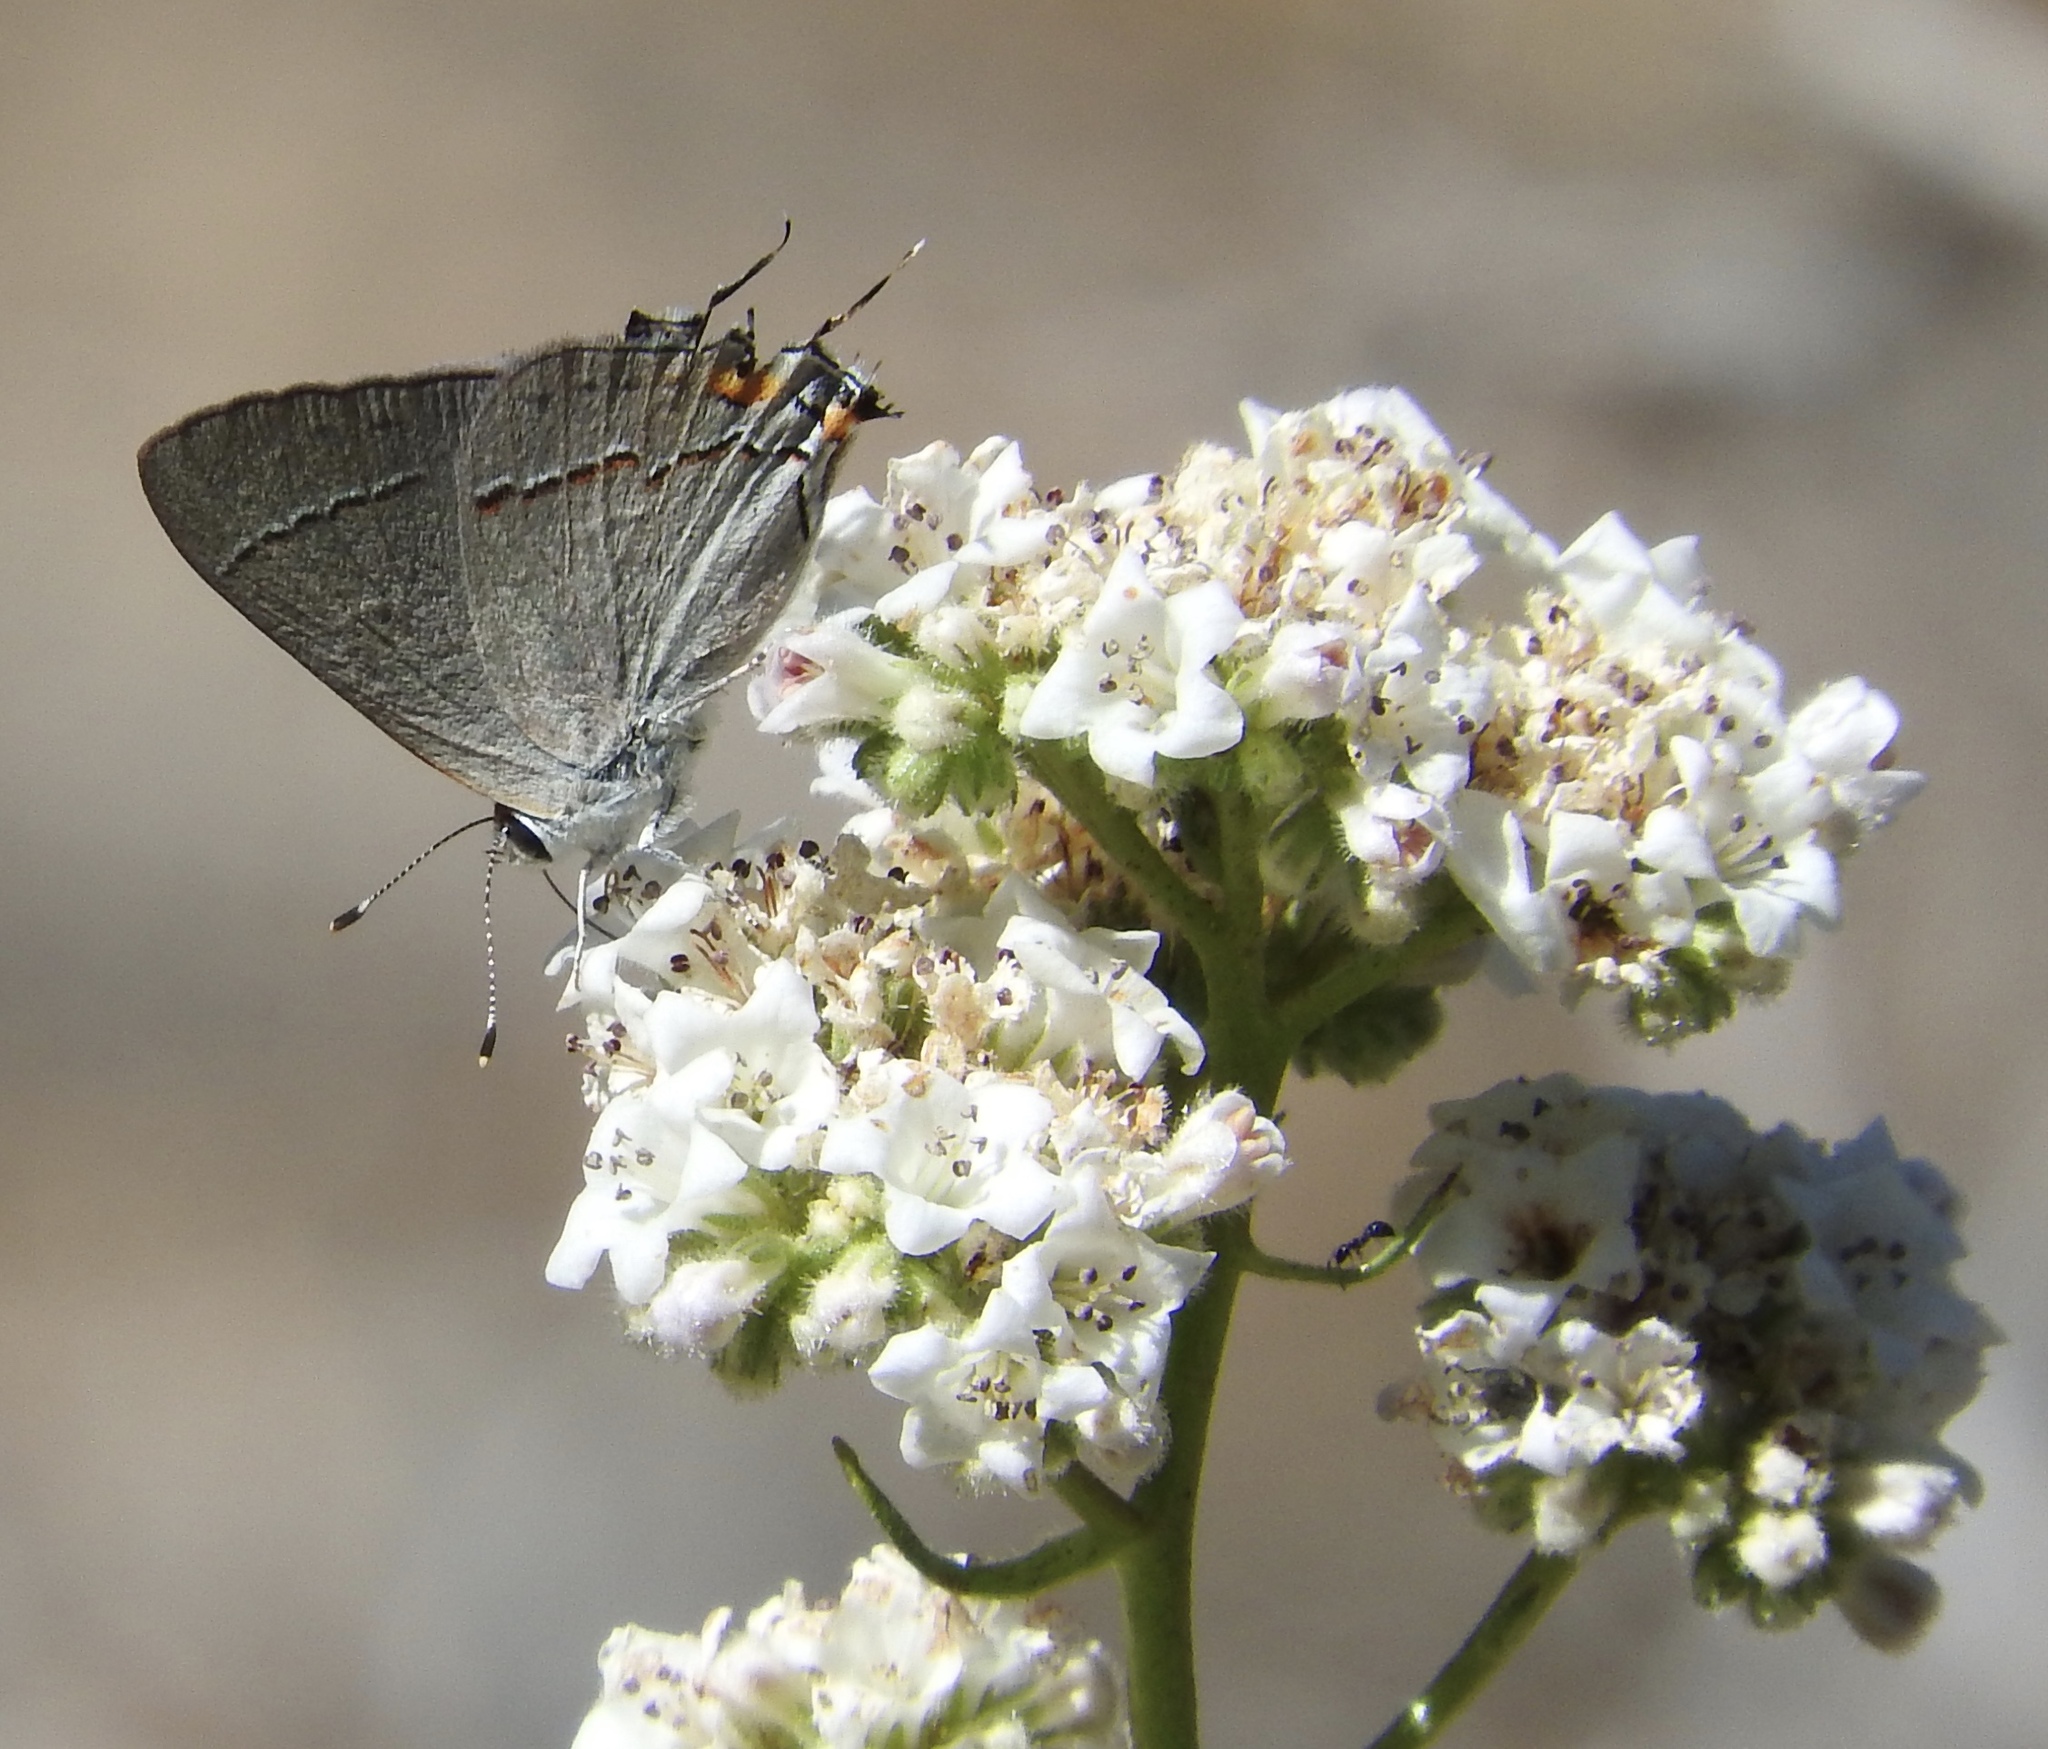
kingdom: Animalia
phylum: Arthropoda
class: Insecta
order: Lepidoptera
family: Lycaenidae
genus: Strymon
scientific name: Strymon melinus
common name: Gray hairstreak
